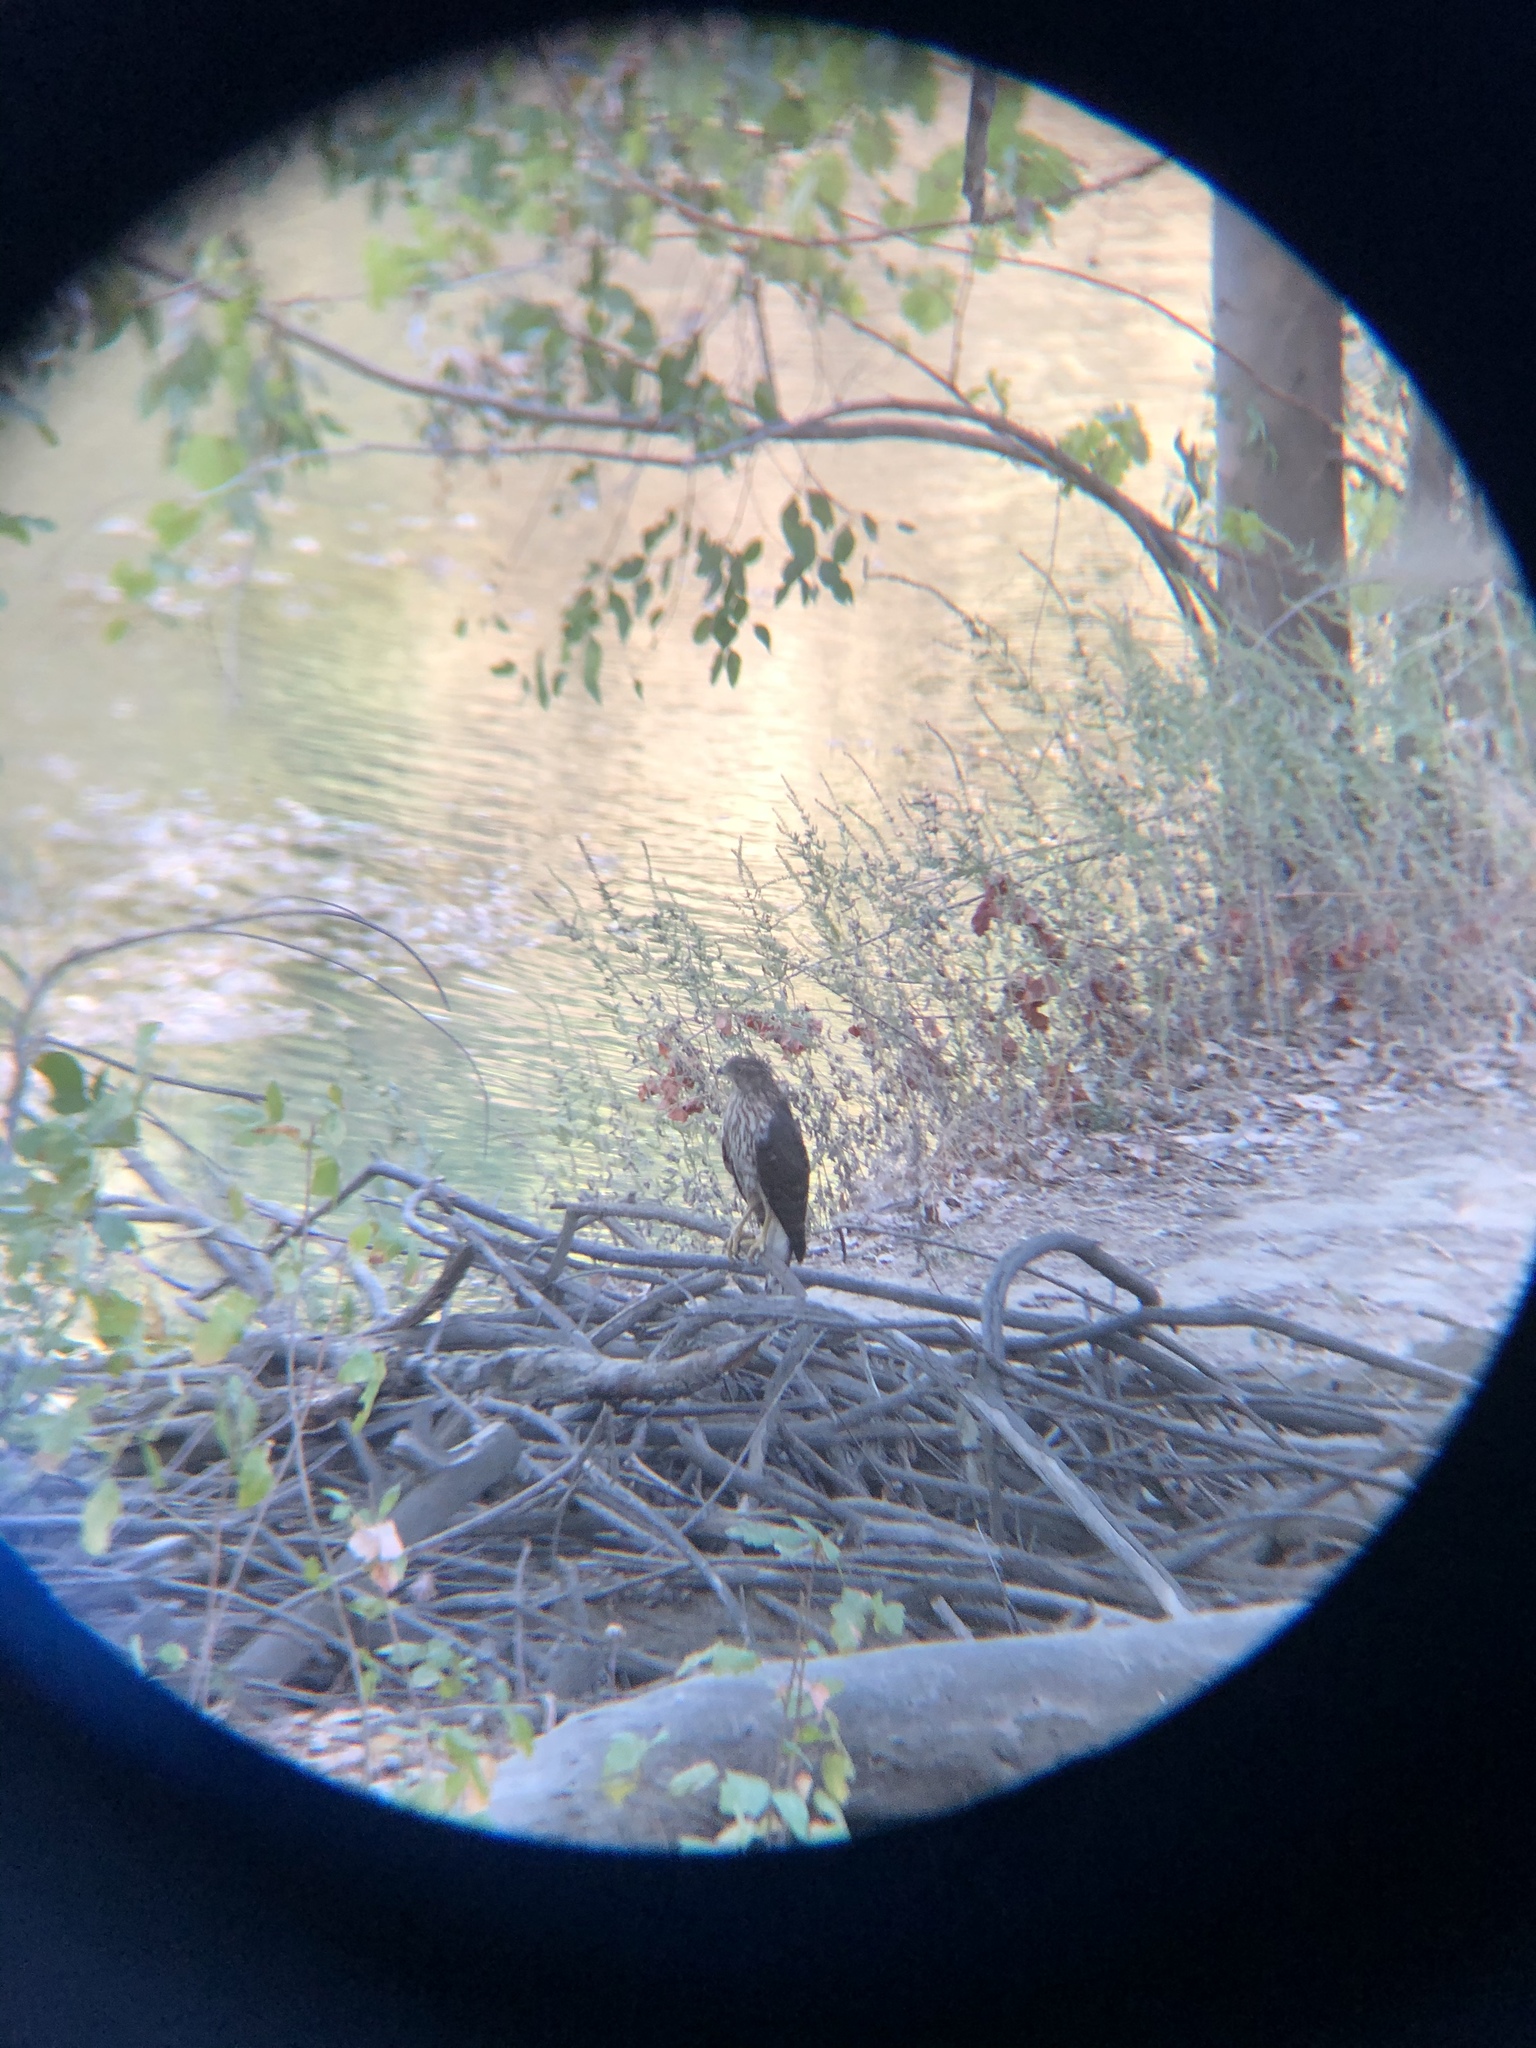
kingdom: Animalia
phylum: Chordata
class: Aves
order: Accipitriformes
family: Accipitridae
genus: Accipiter
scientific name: Accipiter cooperii
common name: Cooper's hawk
